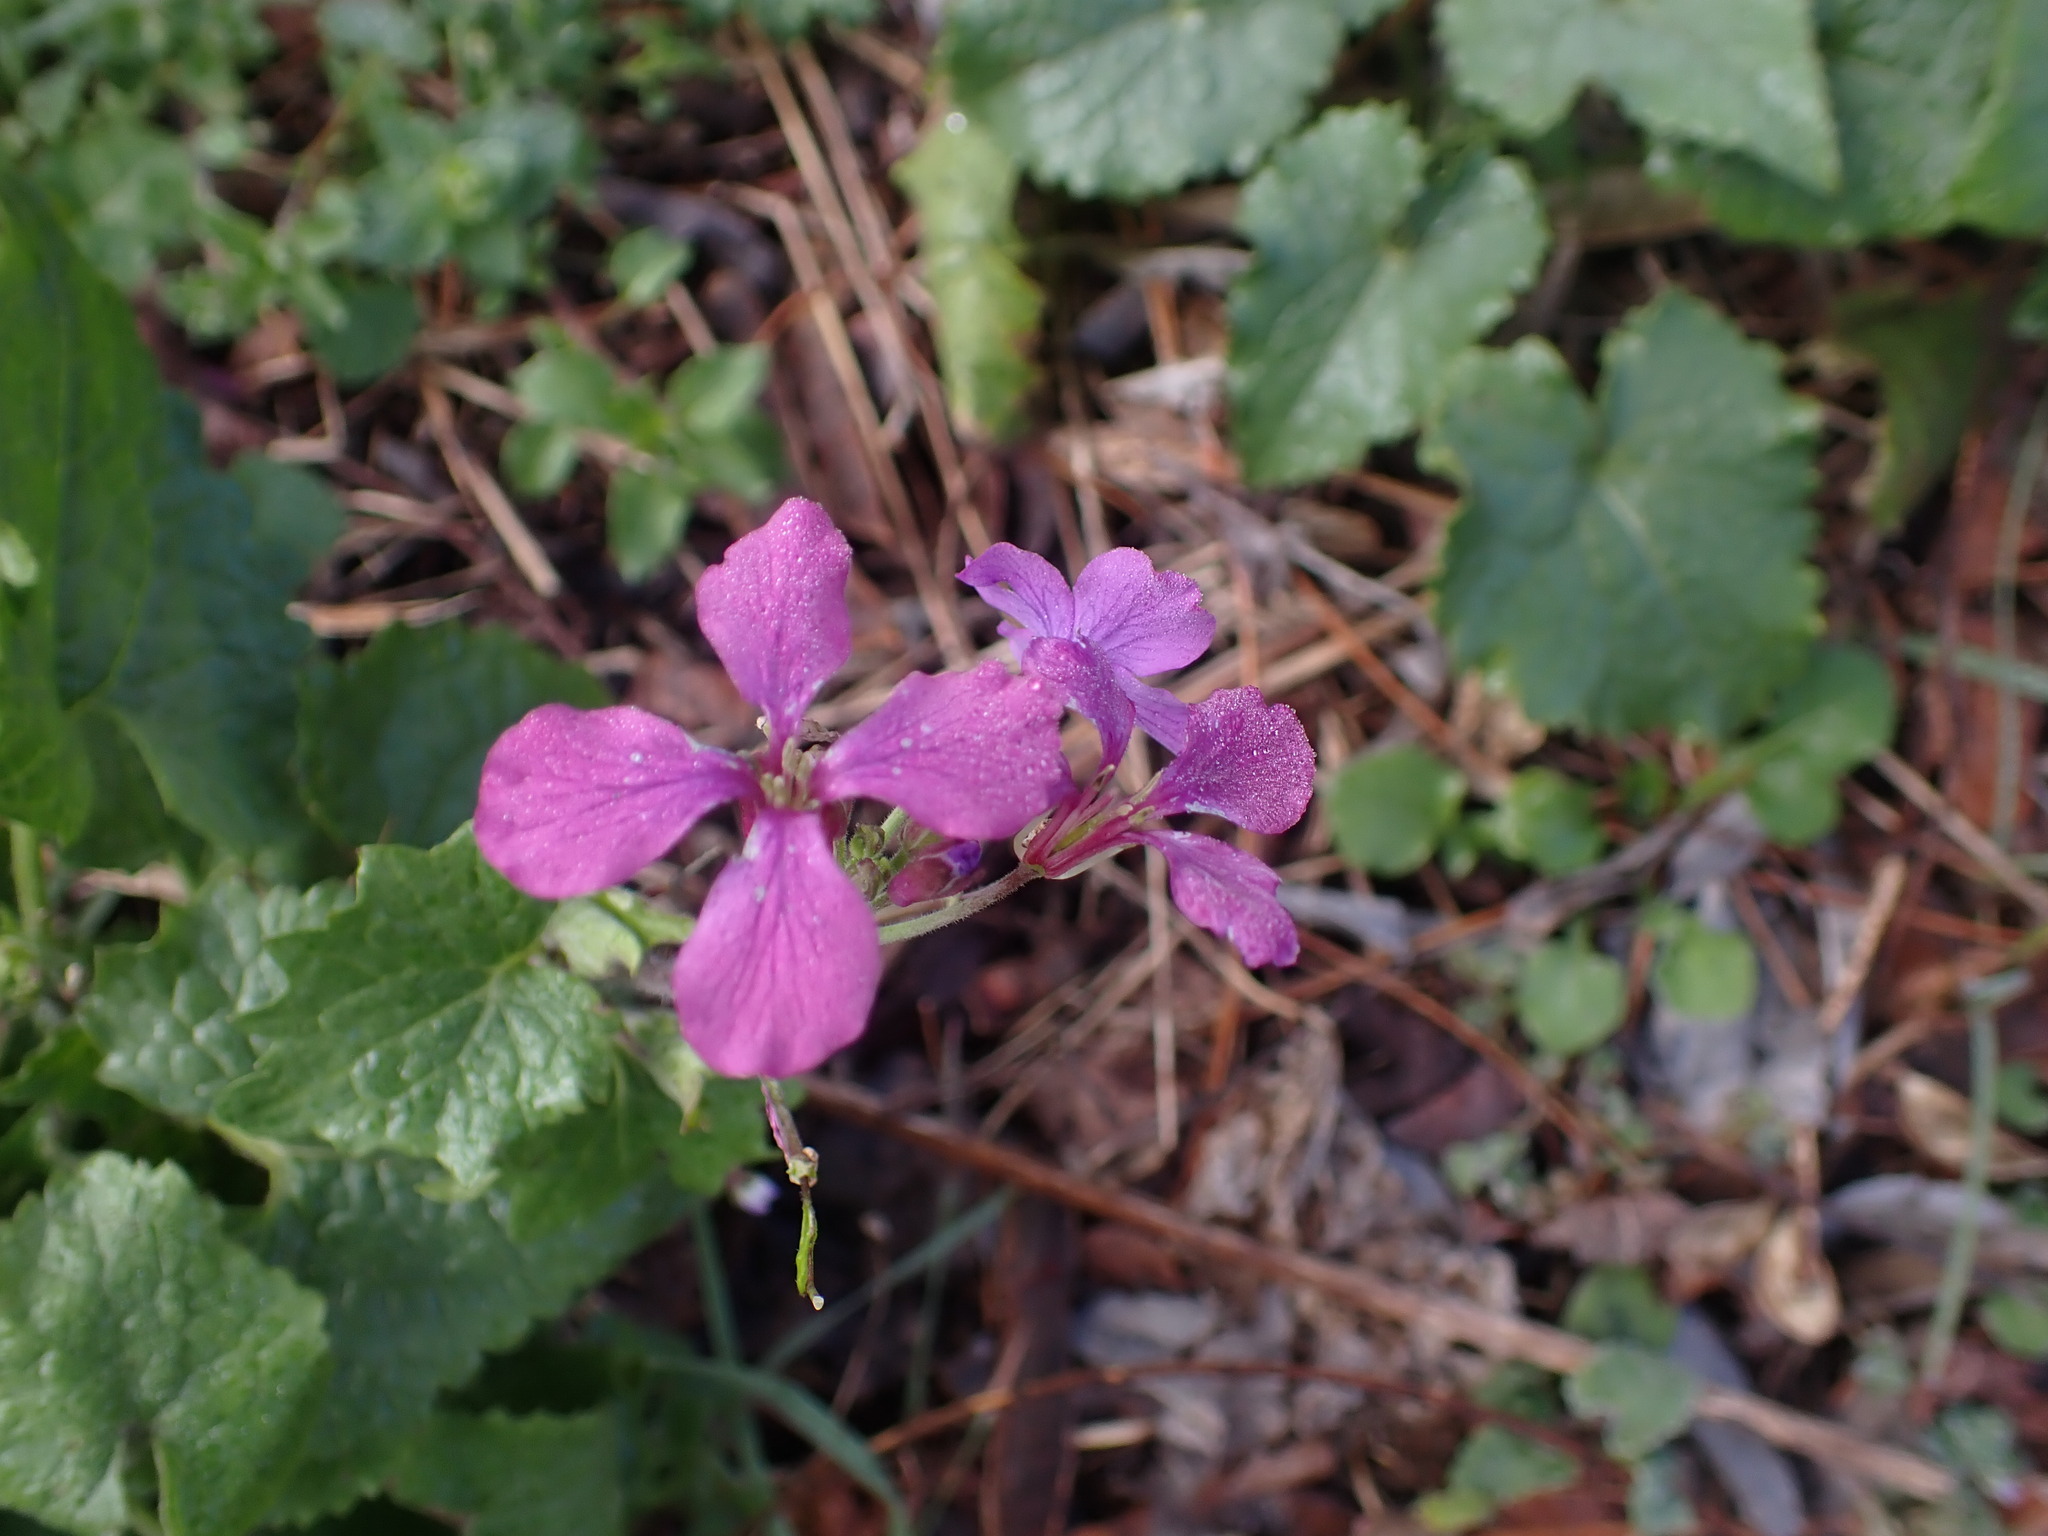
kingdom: Plantae
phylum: Tracheophyta
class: Magnoliopsida
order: Brassicales
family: Brassicaceae
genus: Lunaria
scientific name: Lunaria annua
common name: Honesty
